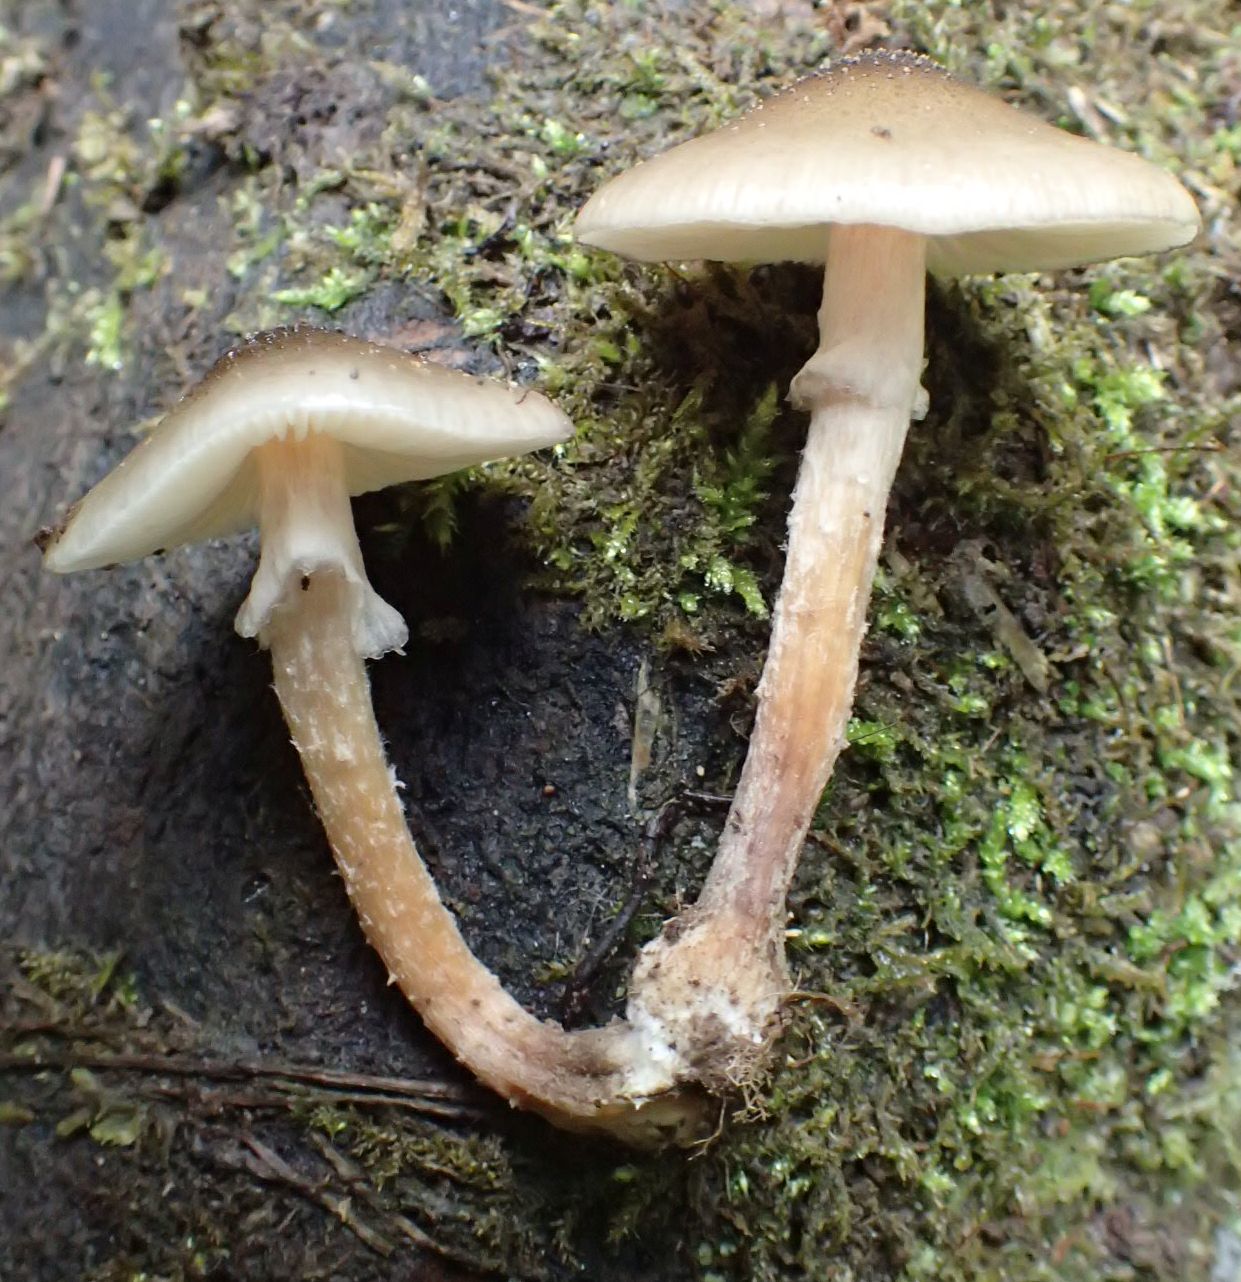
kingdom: Fungi
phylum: Basidiomycota
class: Agaricomycetes
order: Agaricales
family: Physalacriaceae
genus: Armillaria
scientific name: Armillaria novae-zelandiae
